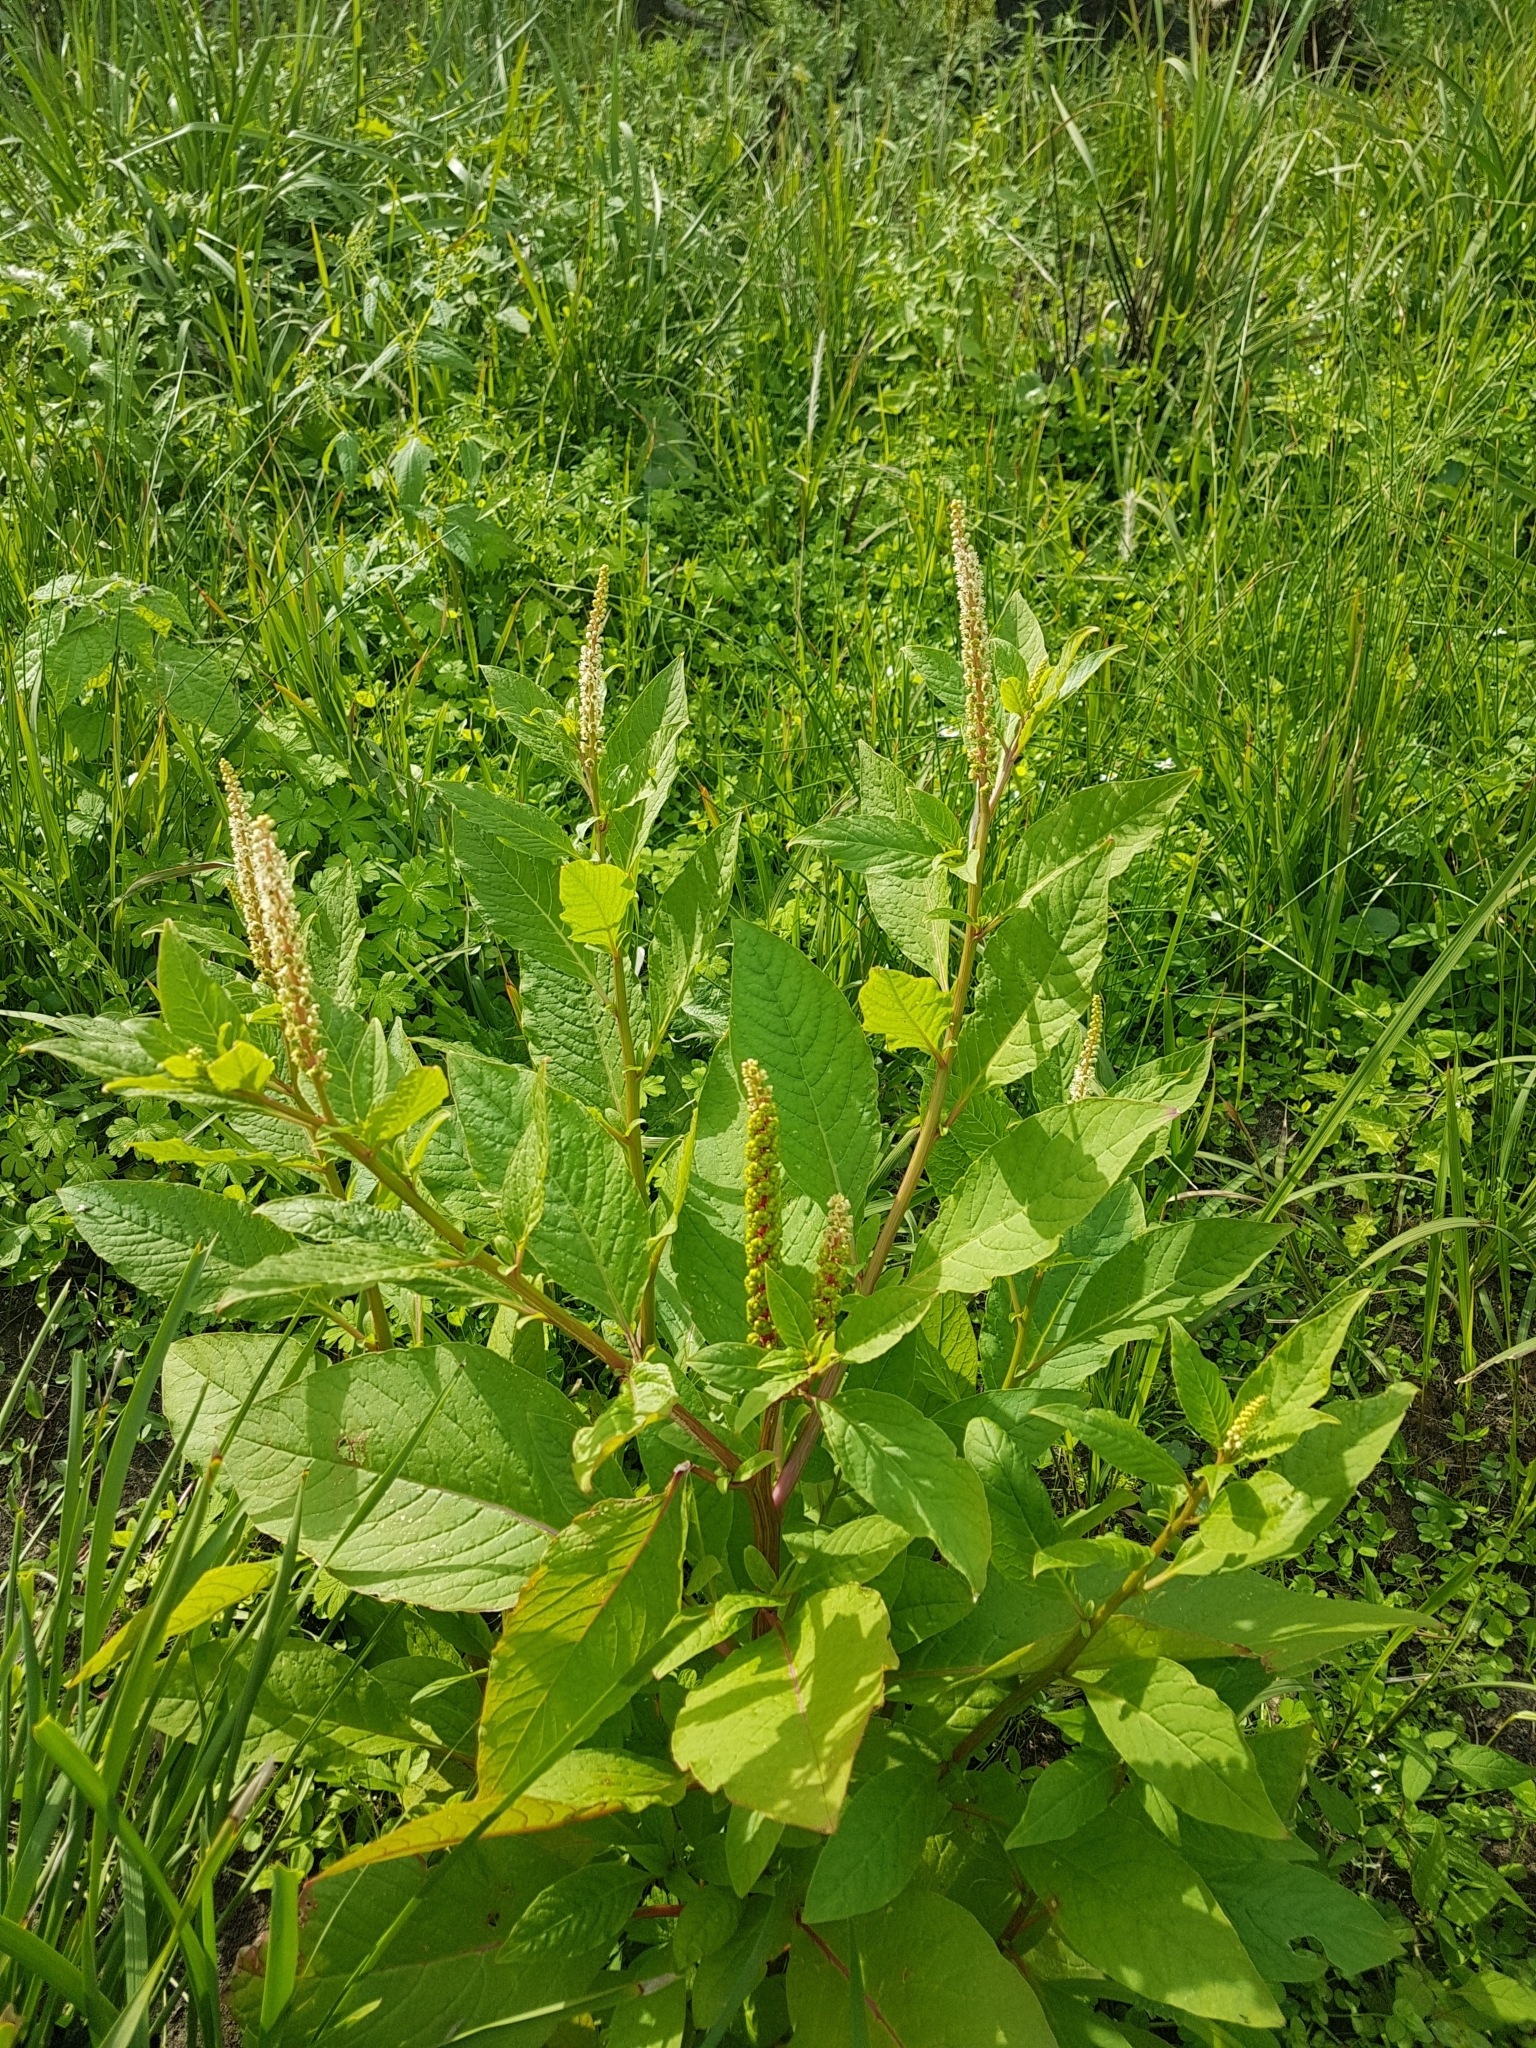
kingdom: Plantae
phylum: Tracheophyta
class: Magnoliopsida
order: Caryophyllales
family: Phytolaccaceae
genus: Phytolacca
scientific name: Phytolacca icosandra
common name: Button pokeweed
